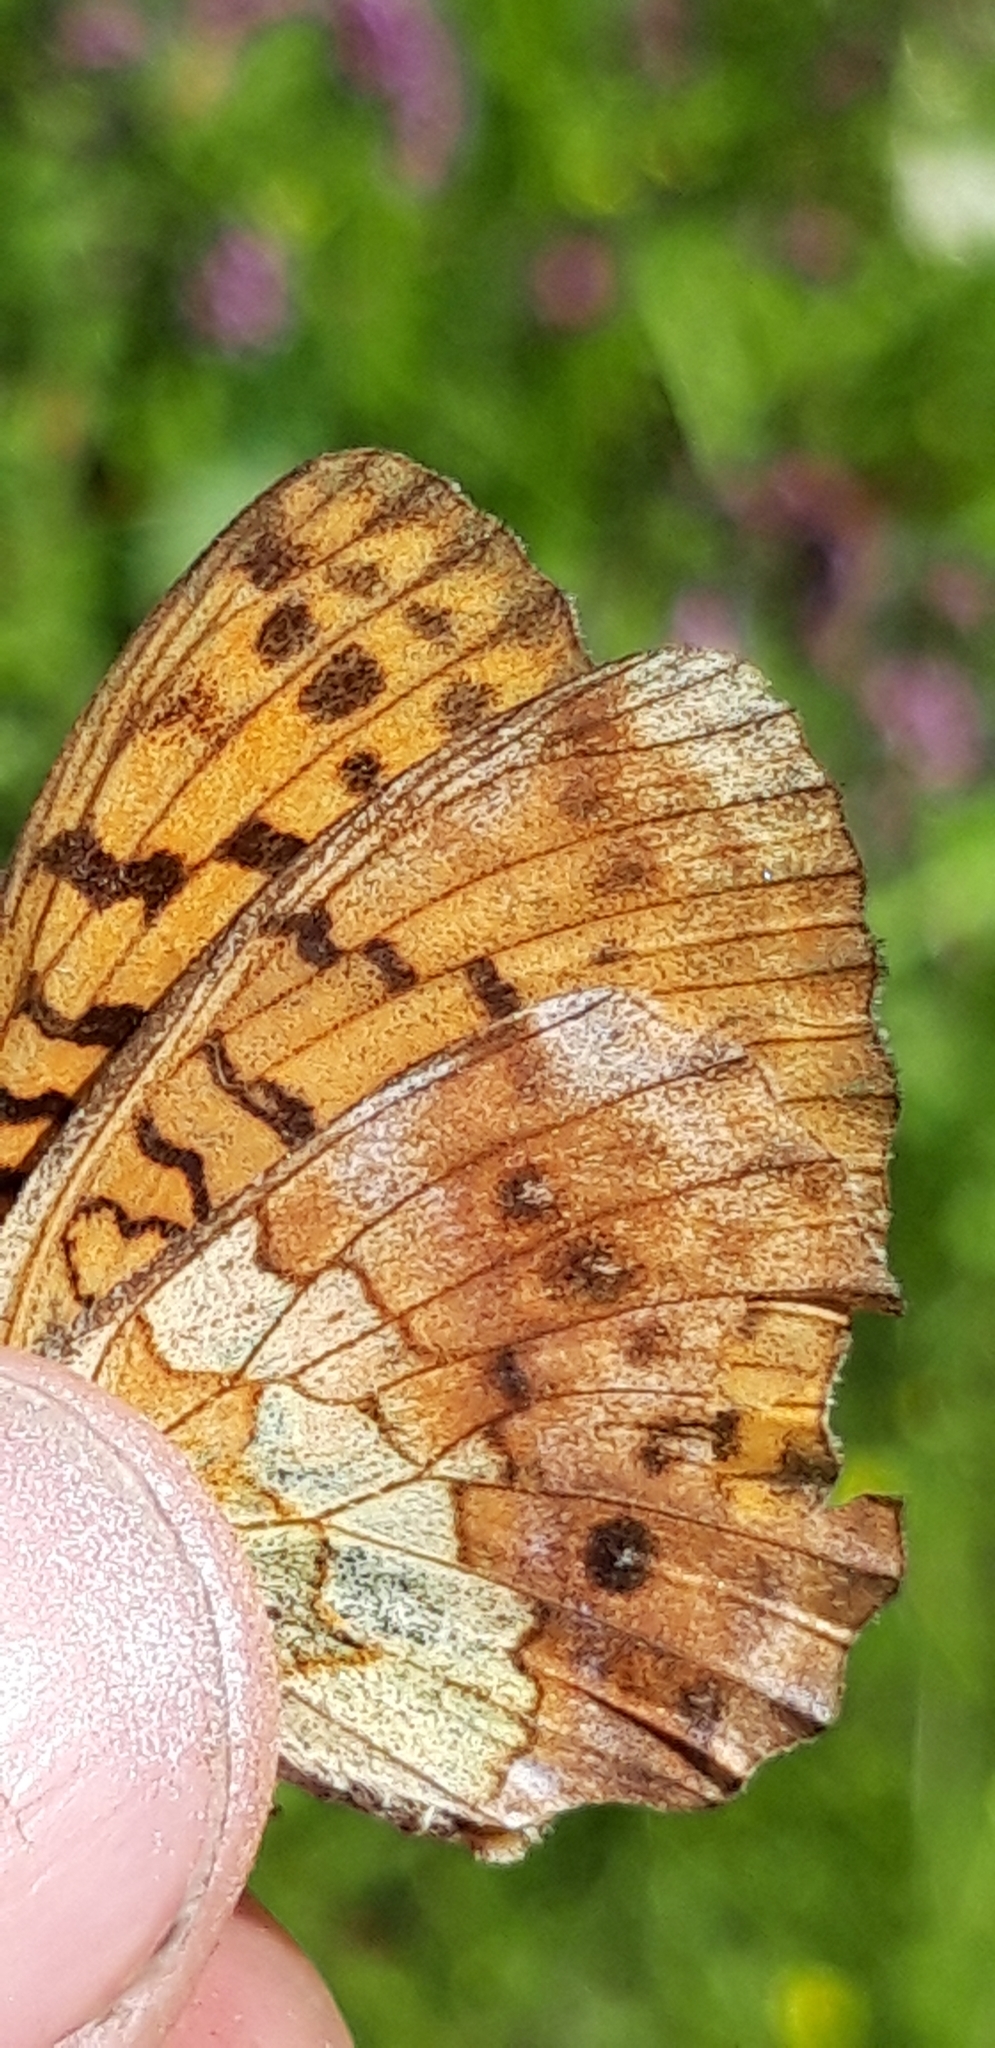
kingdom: Animalia
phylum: Arthropoda
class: Insecta
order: Lepidoptera
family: Nymphalidae
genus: Brenthis
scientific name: Brenthis daphne
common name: Marbled fritillary
